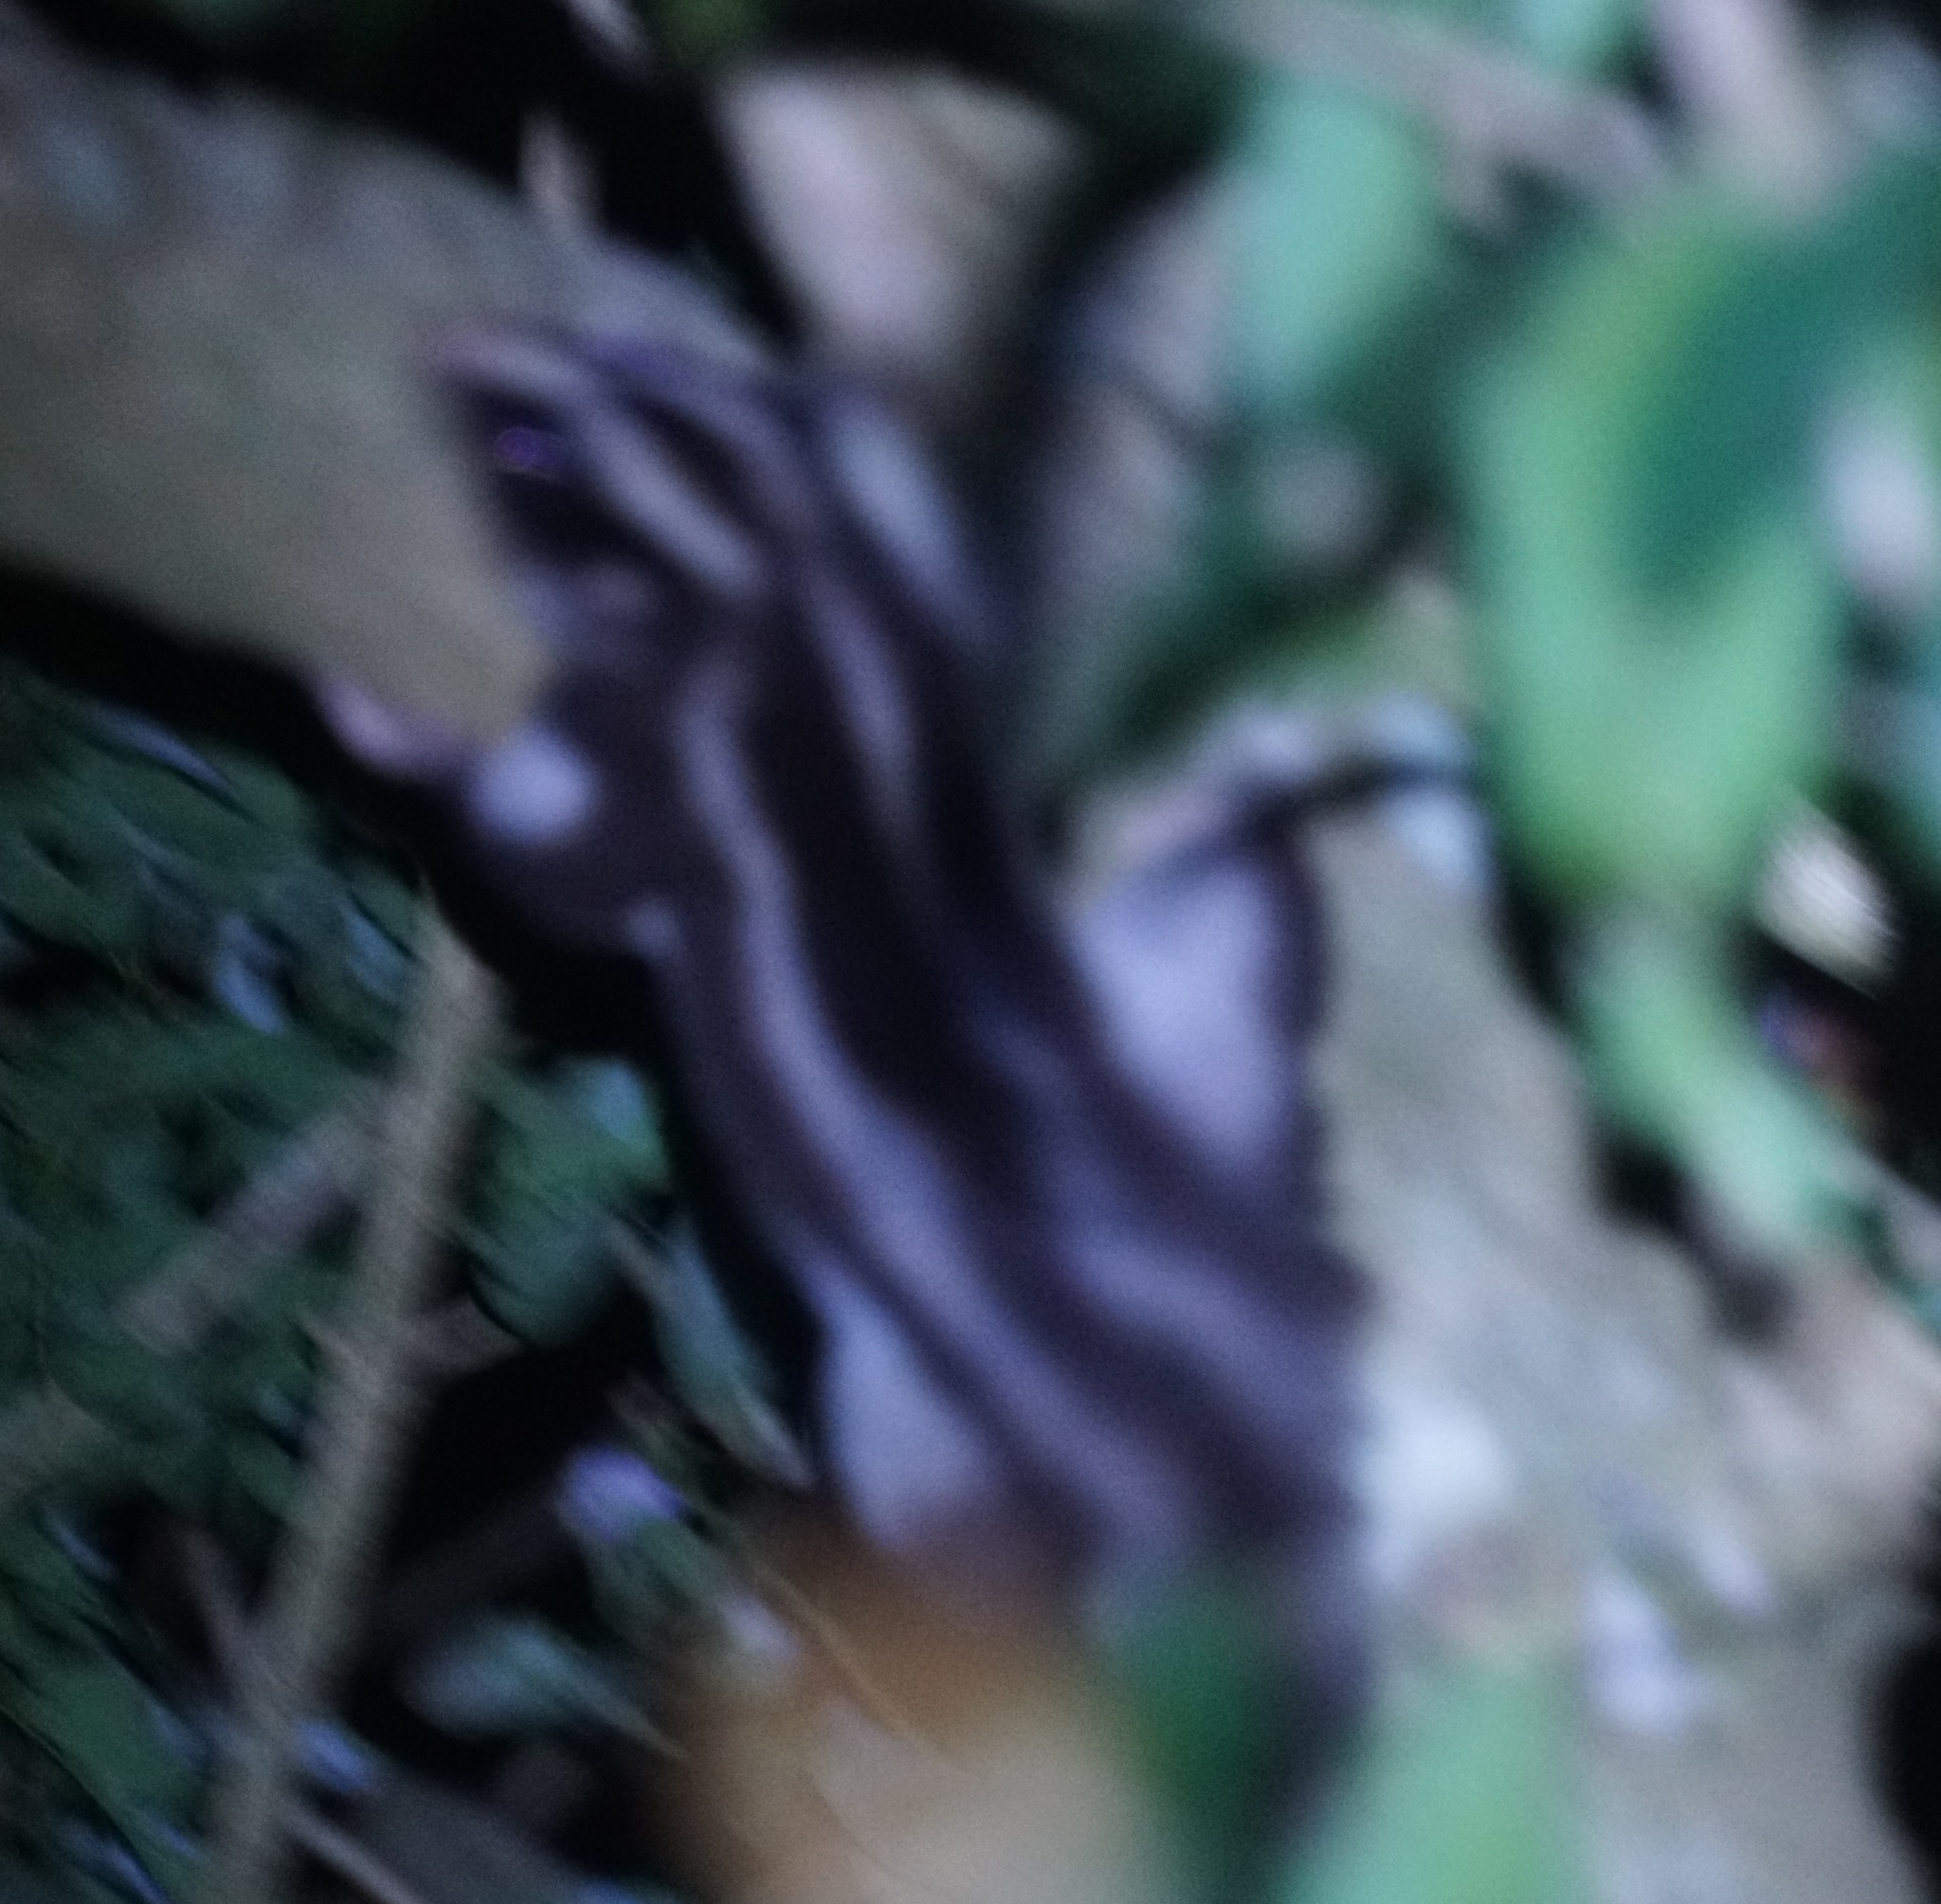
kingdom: Animalia
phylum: Chordata
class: Mammalia
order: Diprotodontia
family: Petauridae
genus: Dactylopsila
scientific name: Dactylopsila trivirgata
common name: Striped possum
